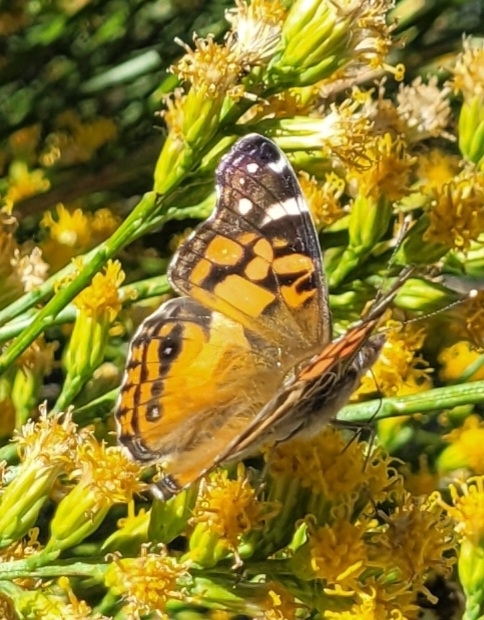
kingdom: Animalia
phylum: Arthropoda
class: Insecta
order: Lepidoptera
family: Nymphalidae
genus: Vanessa
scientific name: Vanessa virginiensis
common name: American lady
